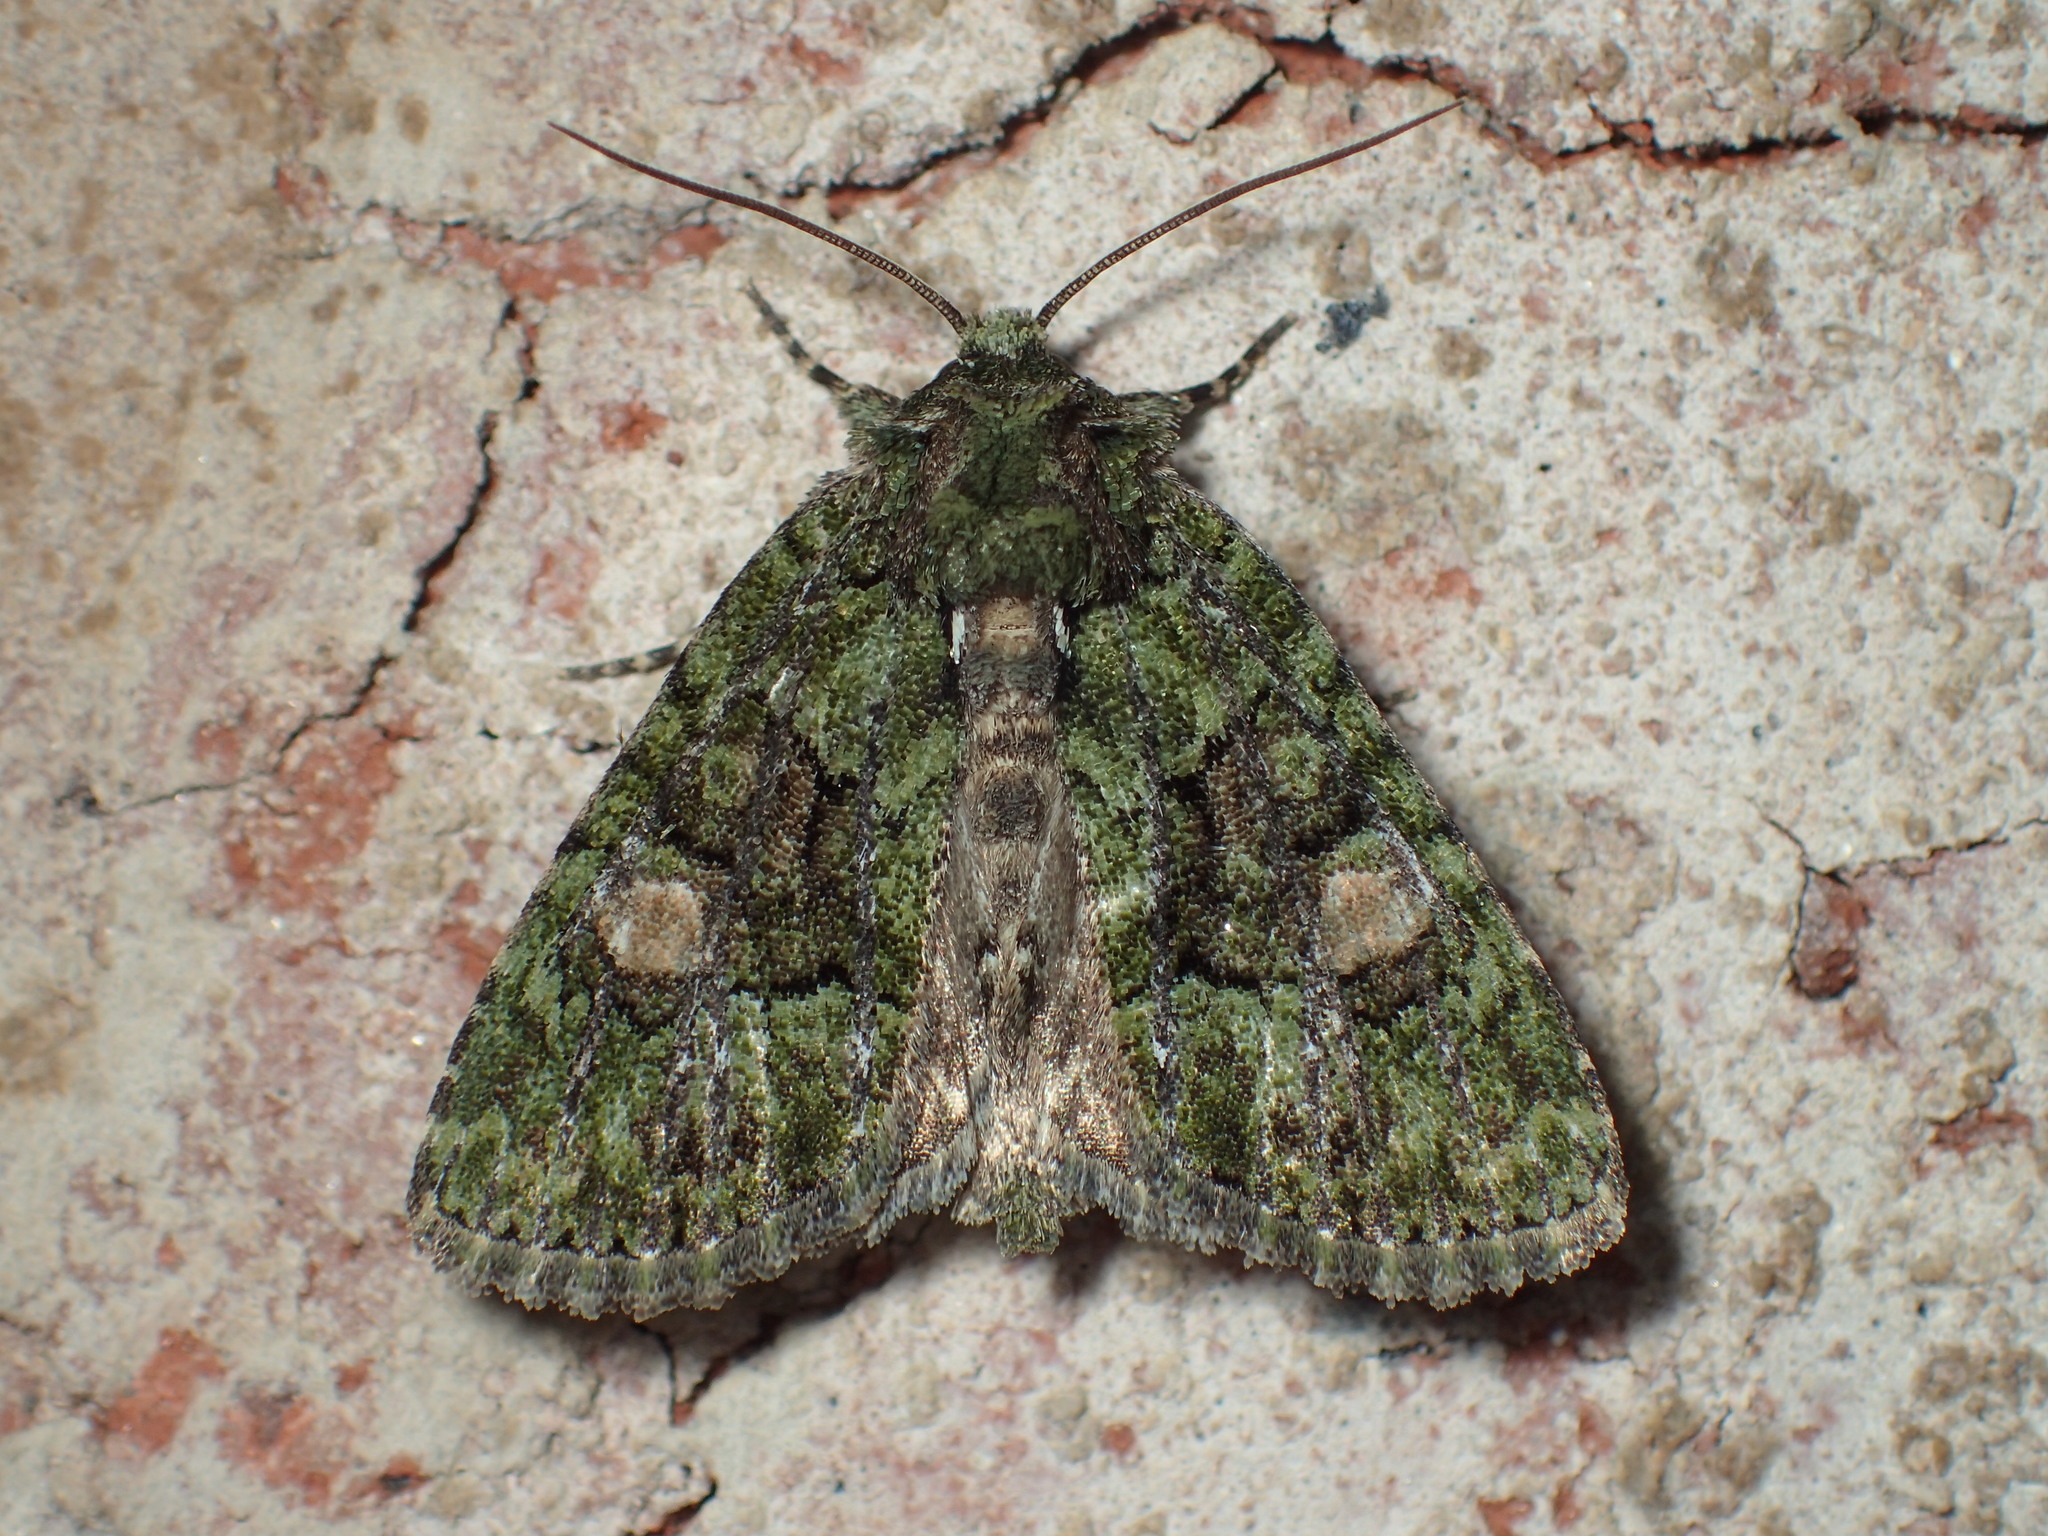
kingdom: Animalia
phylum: Arthropoda
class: Insecta
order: Lepidoptera
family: Noctuidae
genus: Phosphila
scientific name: Phosphila miselioides
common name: Spotted phosphila moth
